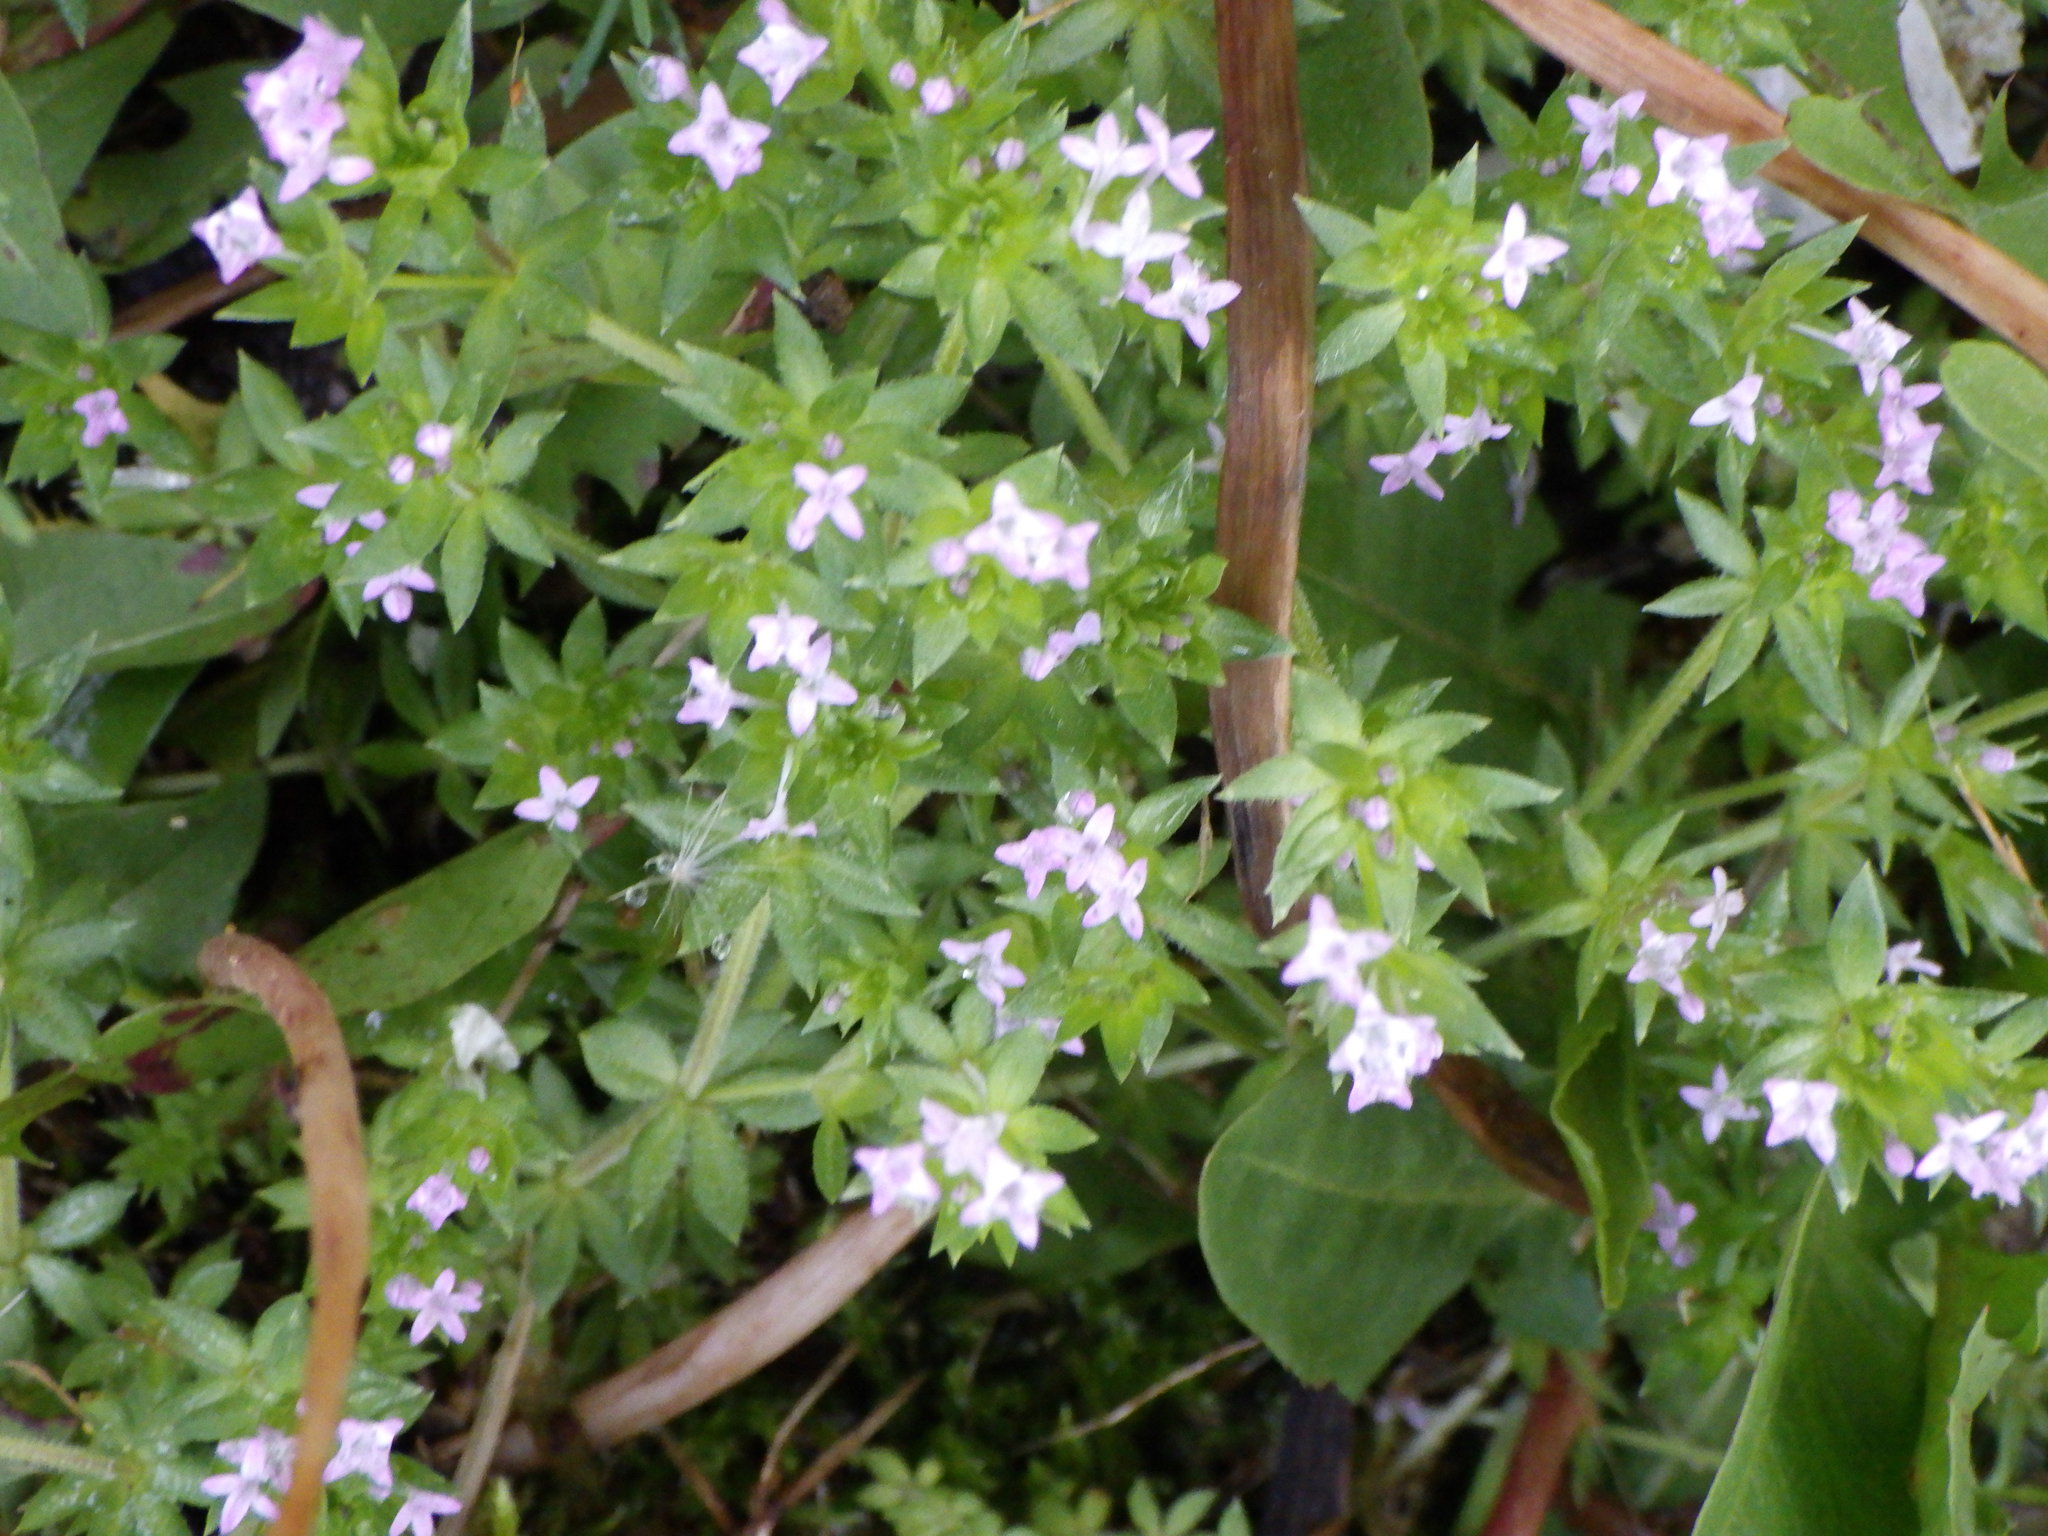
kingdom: Plantae
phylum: Tracheophyta
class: Magnoliopsida
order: Gentianales
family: Rubiaceae
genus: Sherardia
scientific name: Sherardia arvensis
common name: Field madder
